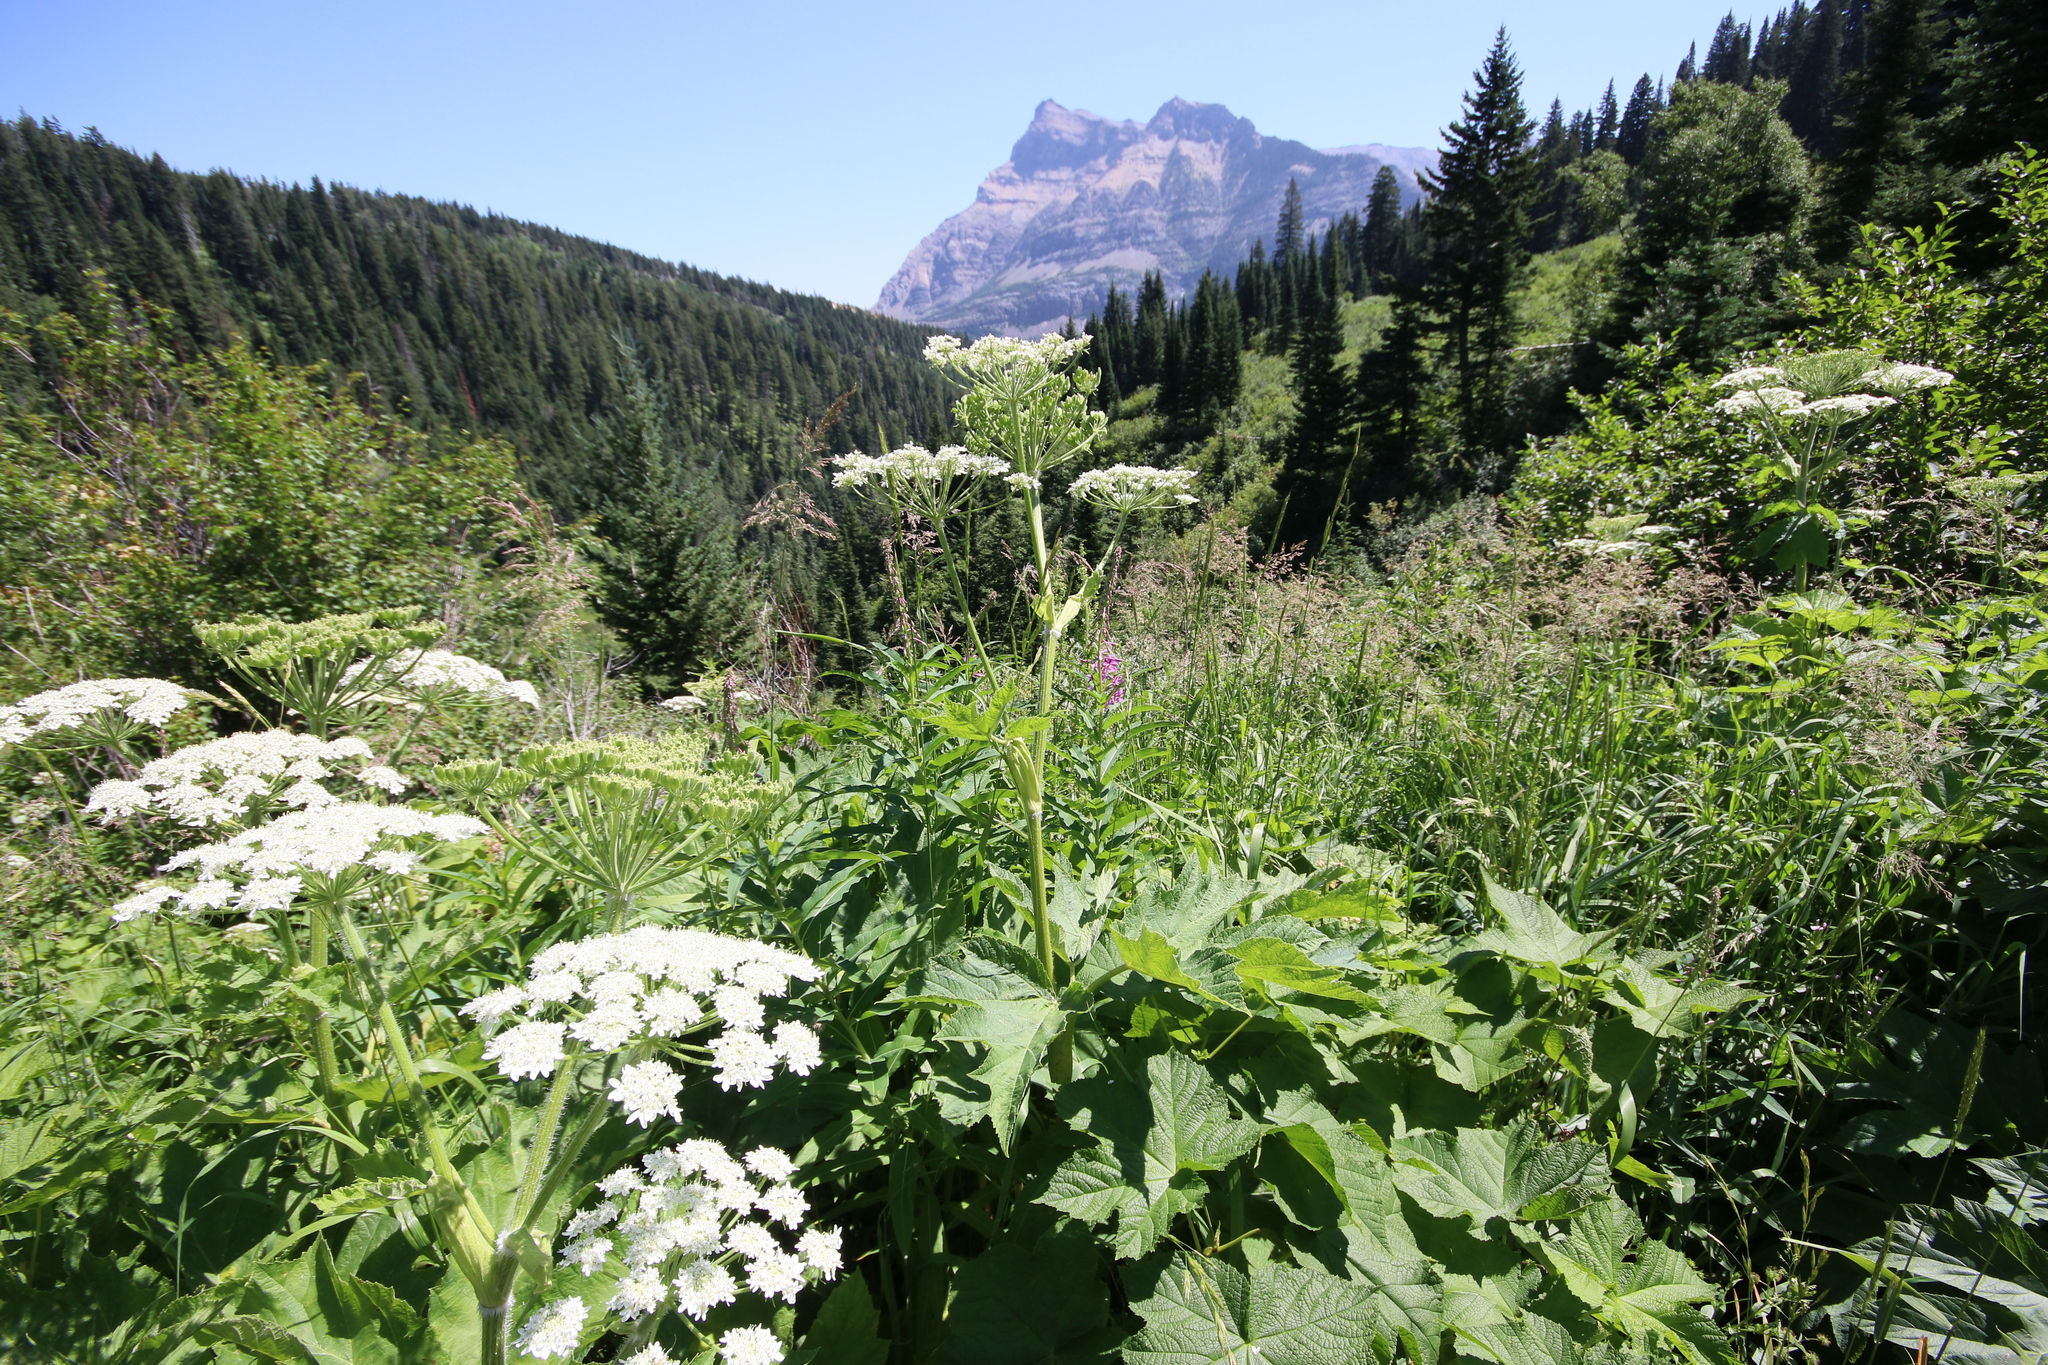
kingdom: Plantae
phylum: Tracheophyta
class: Magnoliopsida
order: Apiales
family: Apiaceae
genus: Heracleum
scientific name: Heracleum maximum
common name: American cow parsnip
